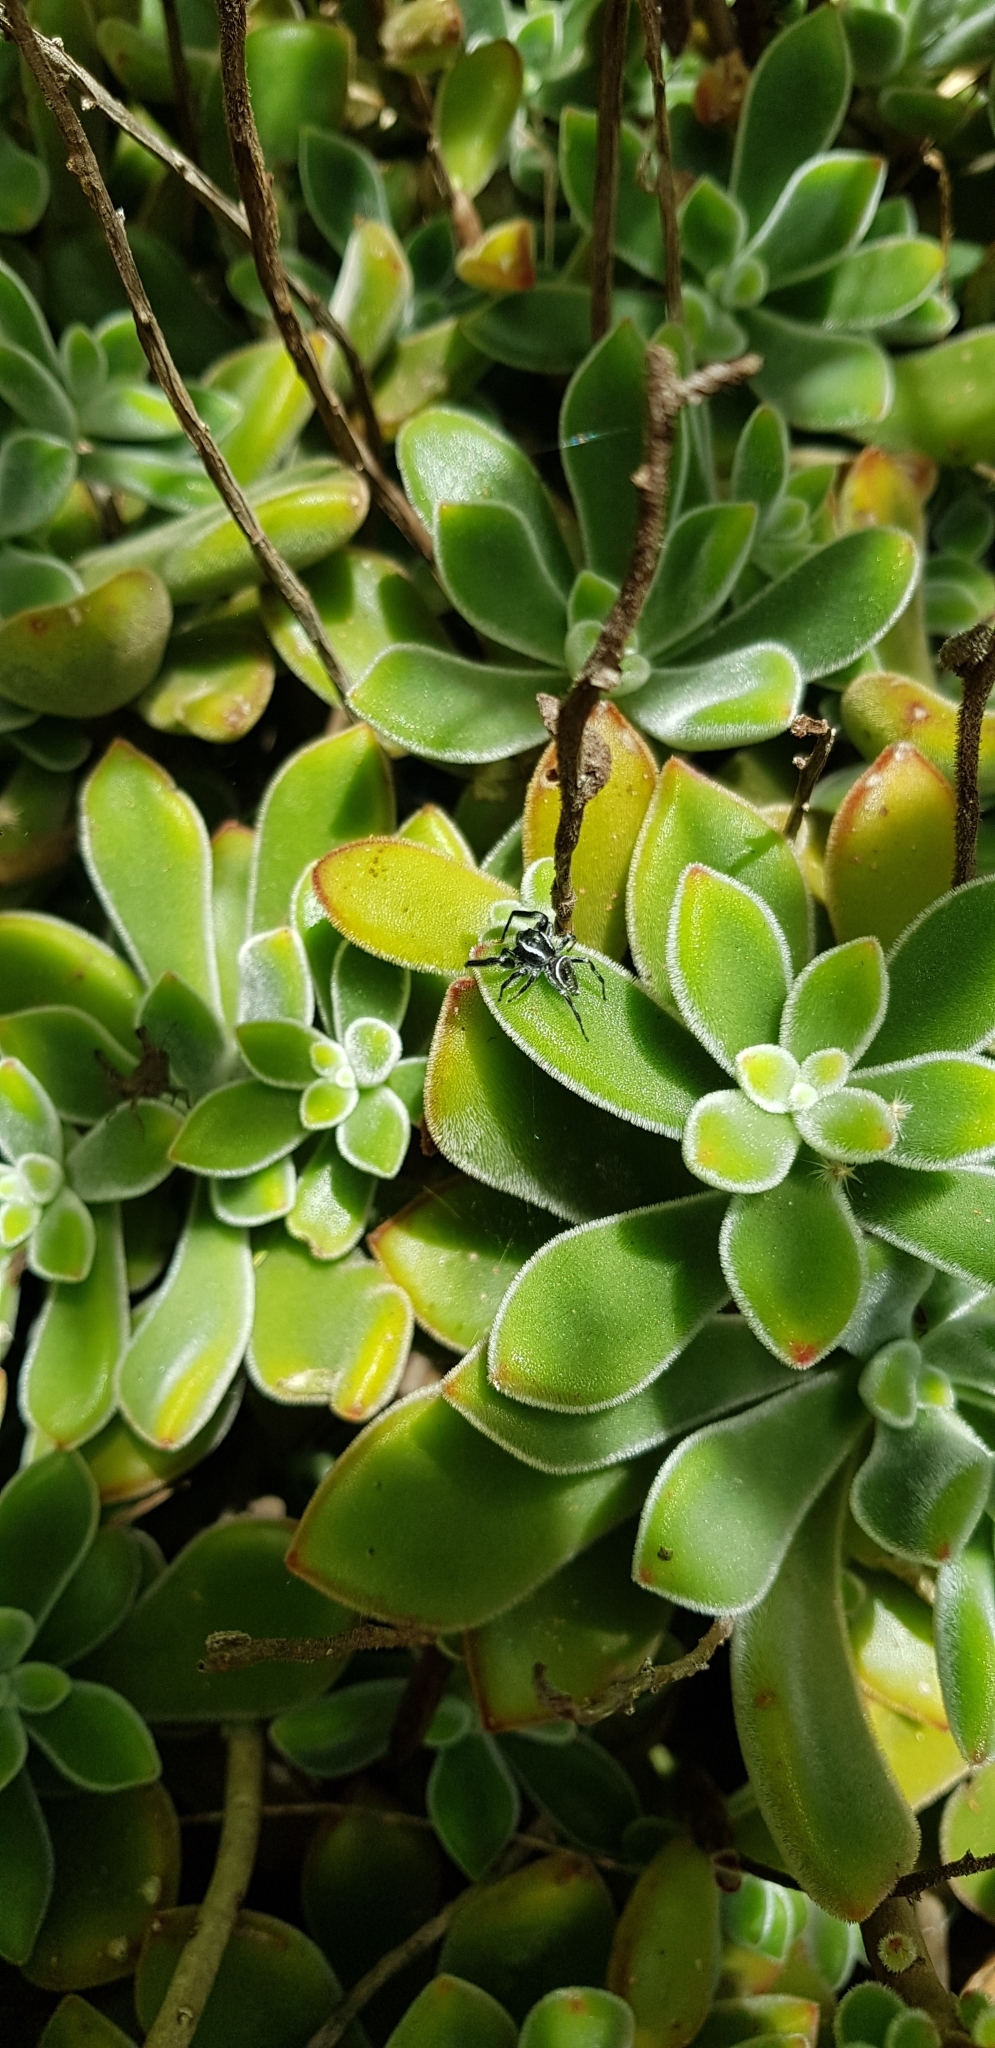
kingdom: Animalia
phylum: Arthropoda
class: Arachnida
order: Araneae
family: Salticidae
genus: Paraphidippus
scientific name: Paraphidippus aurantius
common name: Jumping spiders
